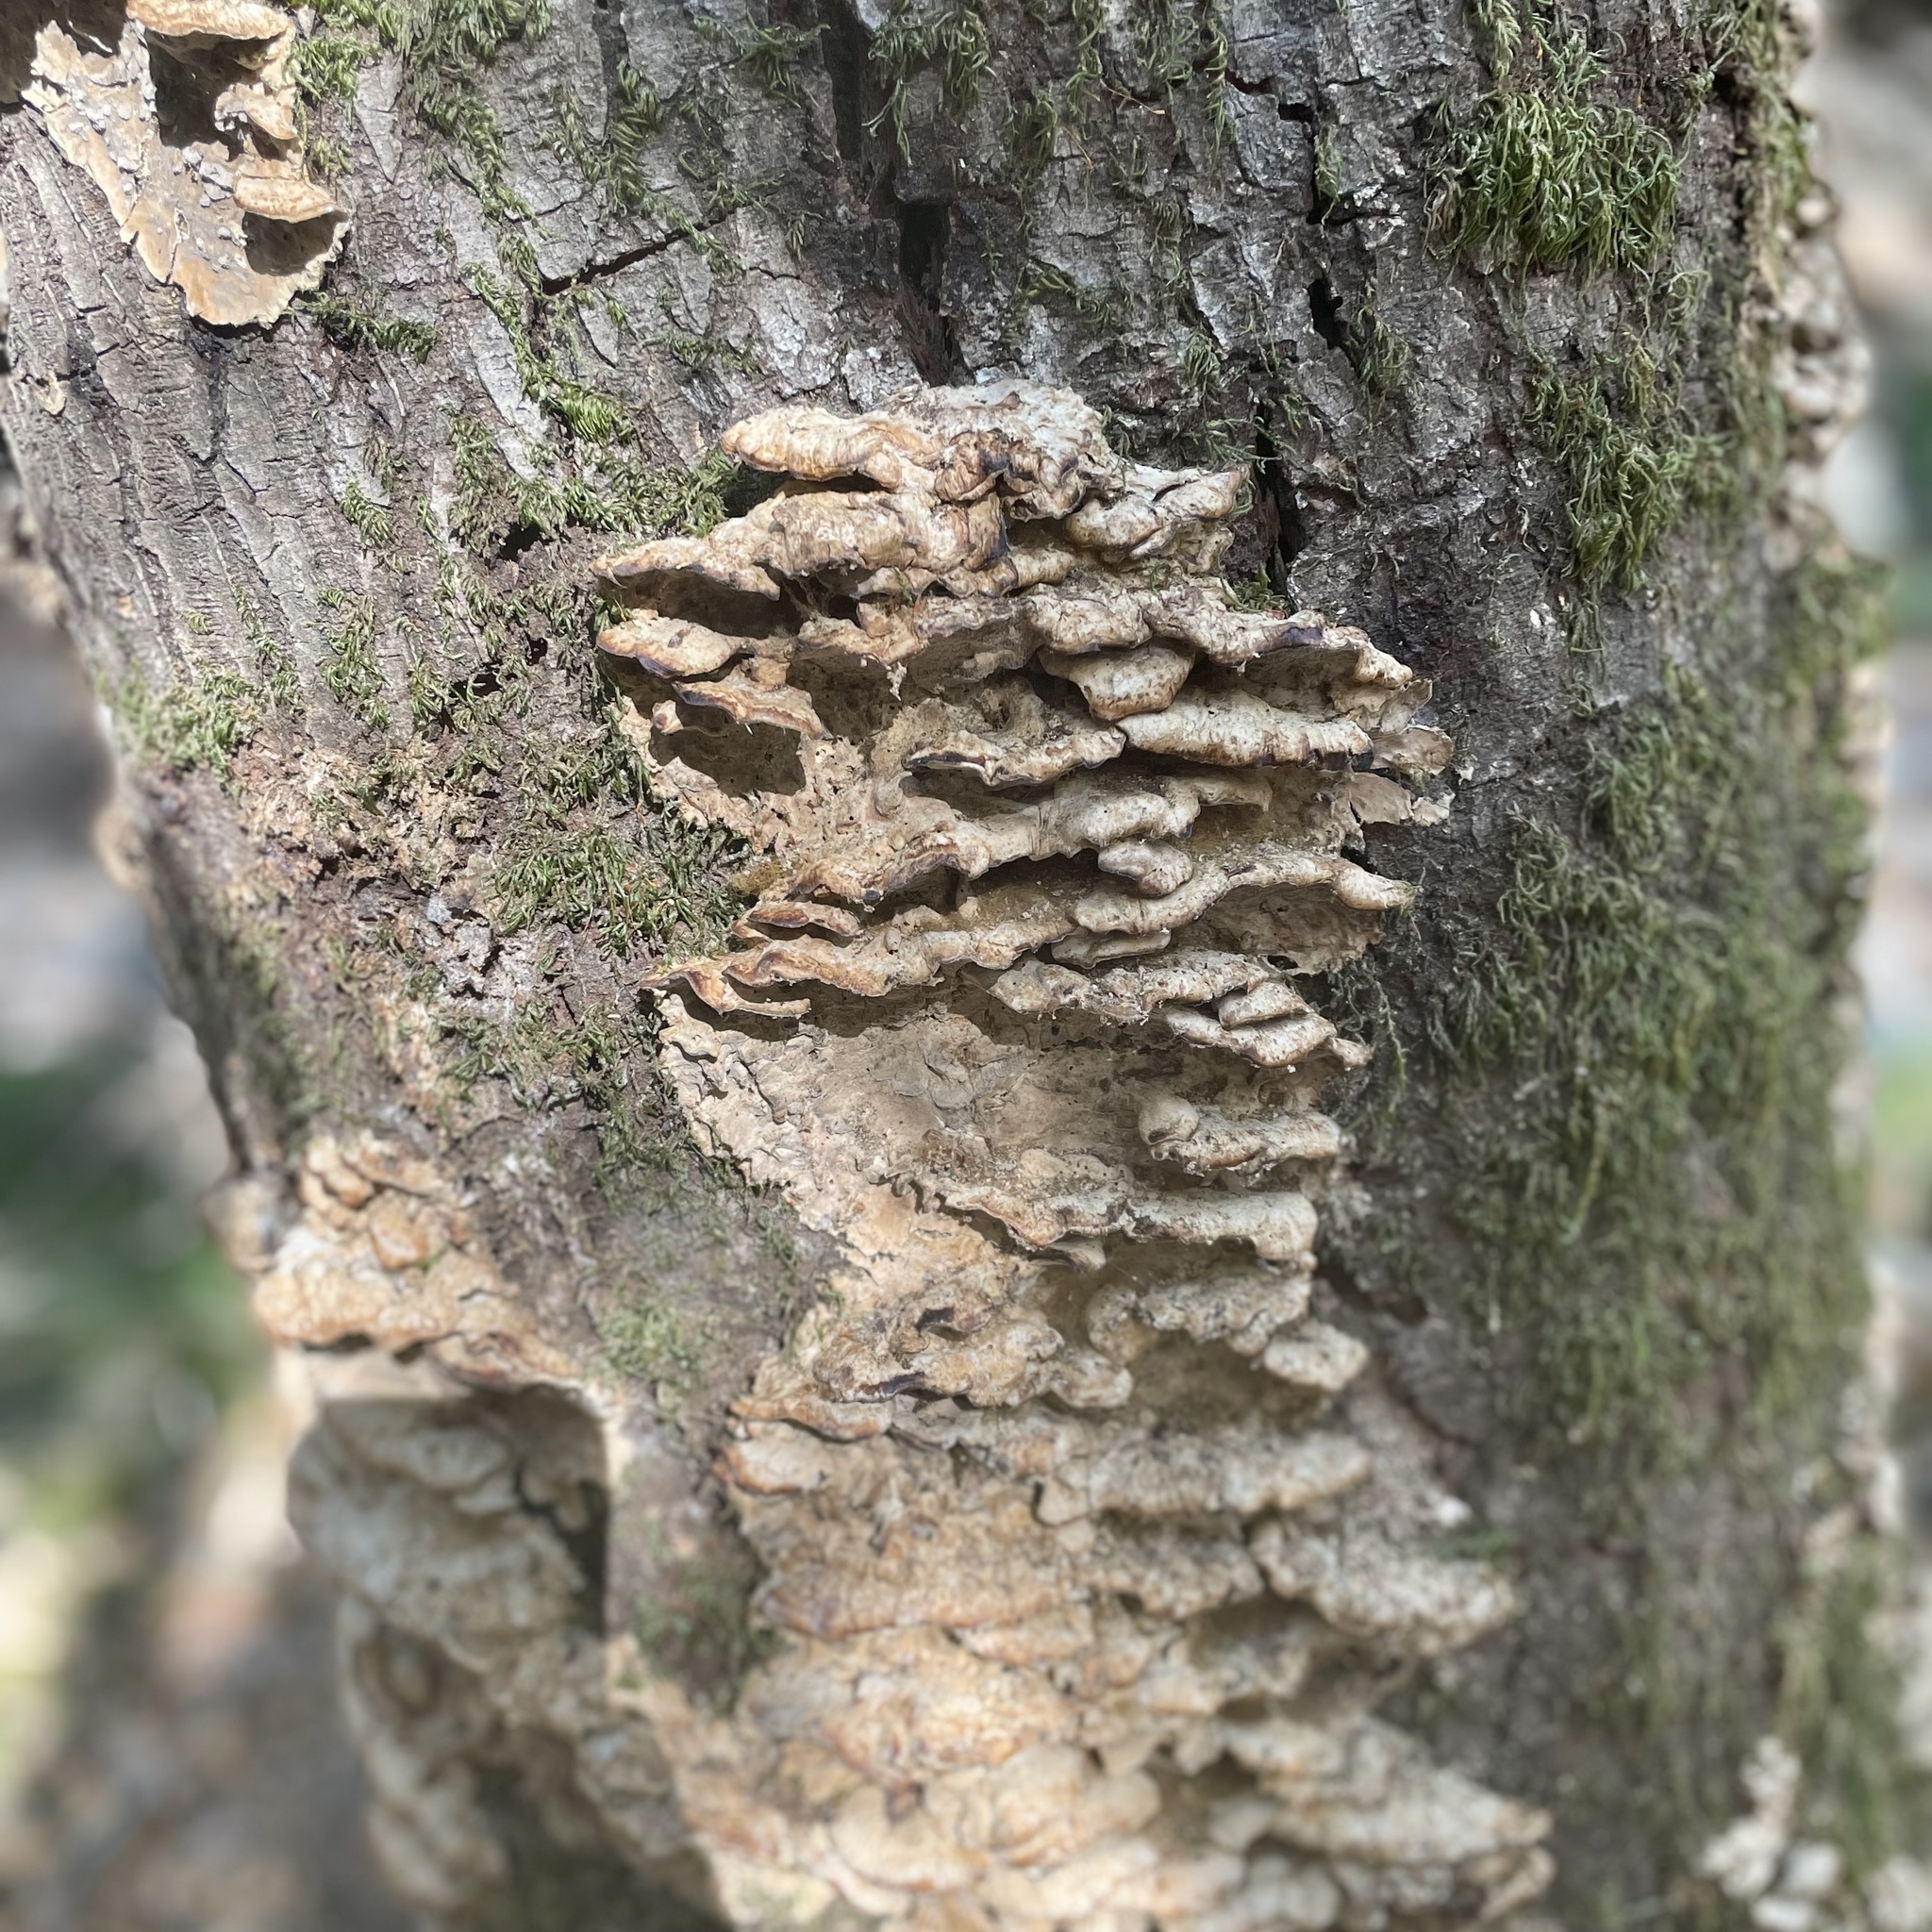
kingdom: Fungi
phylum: Basidiomycota
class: Agaricomycetes
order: Hymenochaetales
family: Hymenochaetaceae
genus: Phellinus
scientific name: Phellinus gilvus
